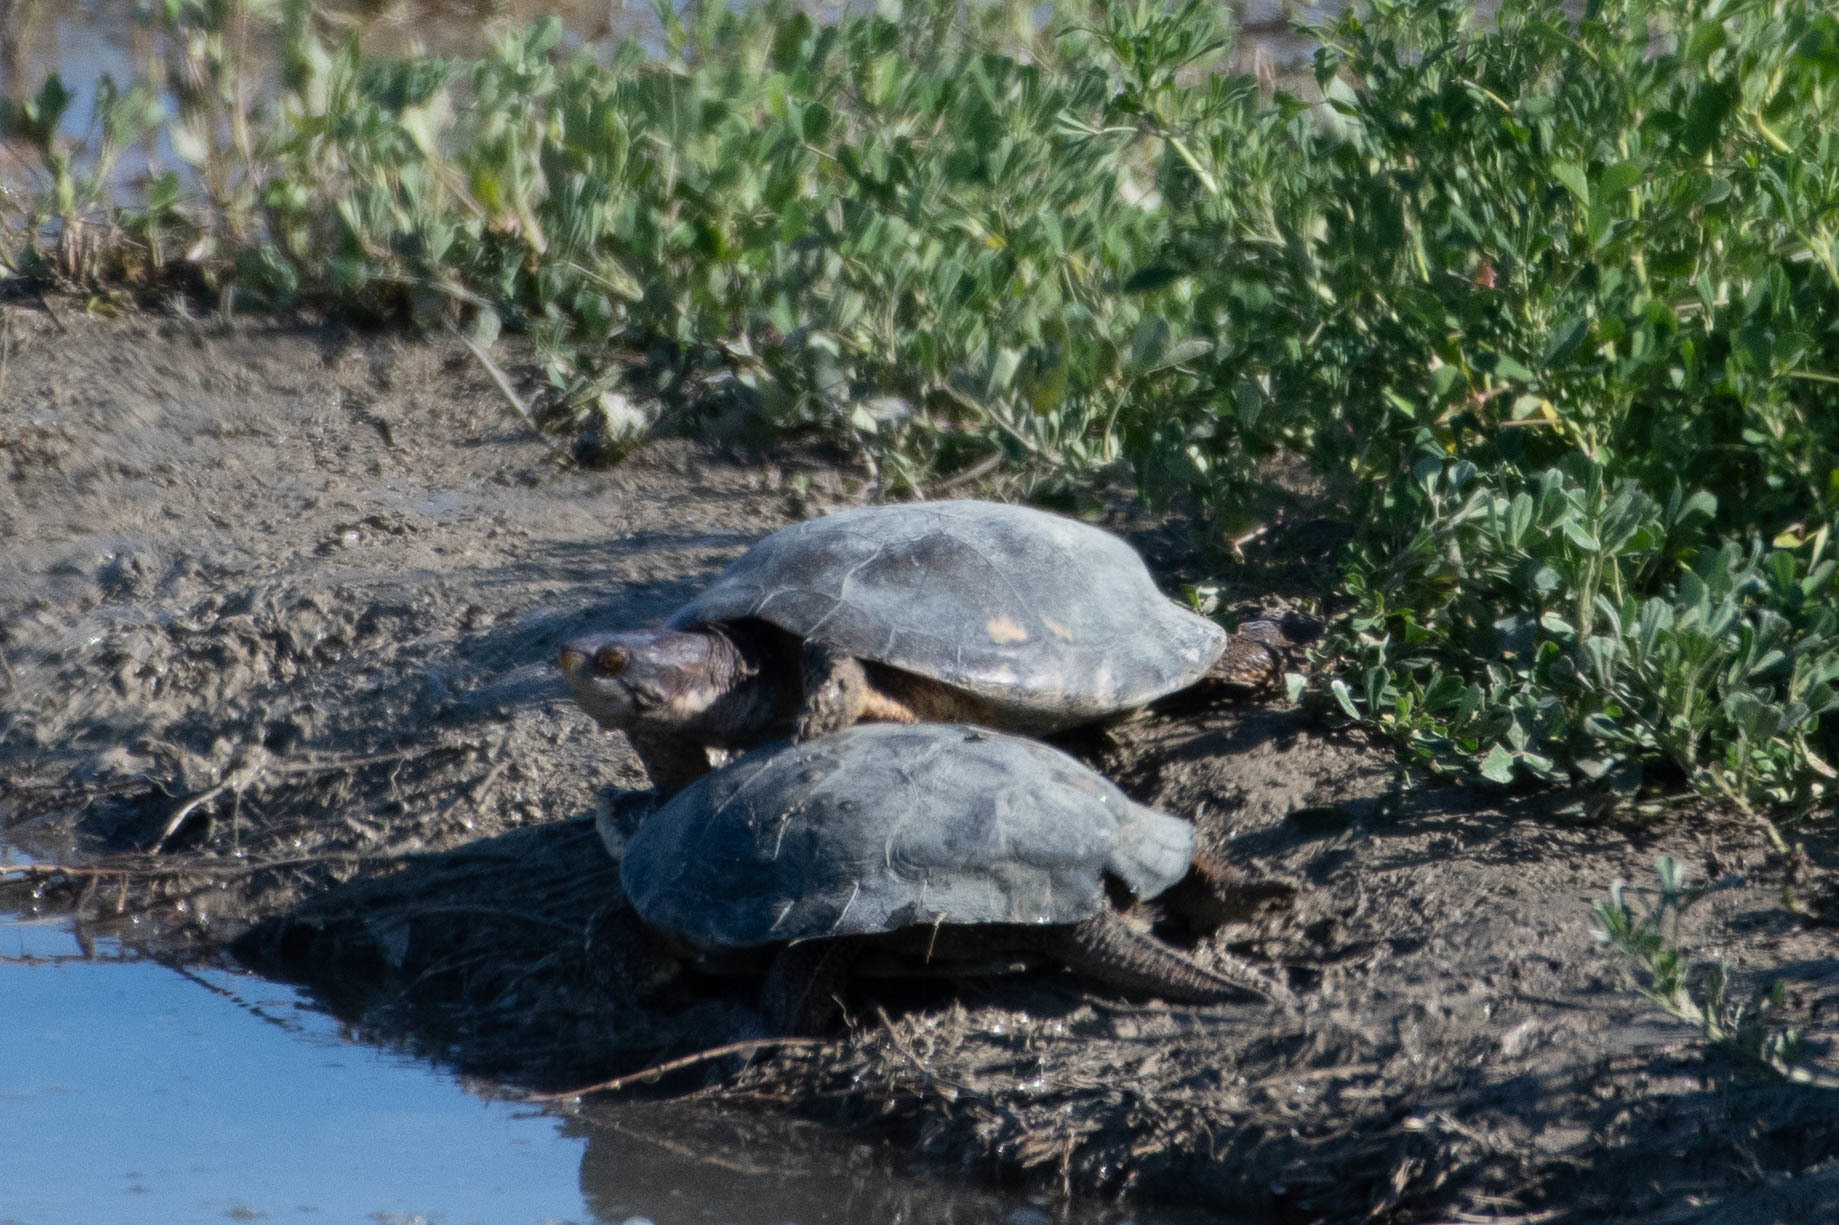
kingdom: Animalia
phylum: Chordata
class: Testudines
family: Emydidae
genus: Actinemys
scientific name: Actinemys marmorata
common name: Western pond turtle
